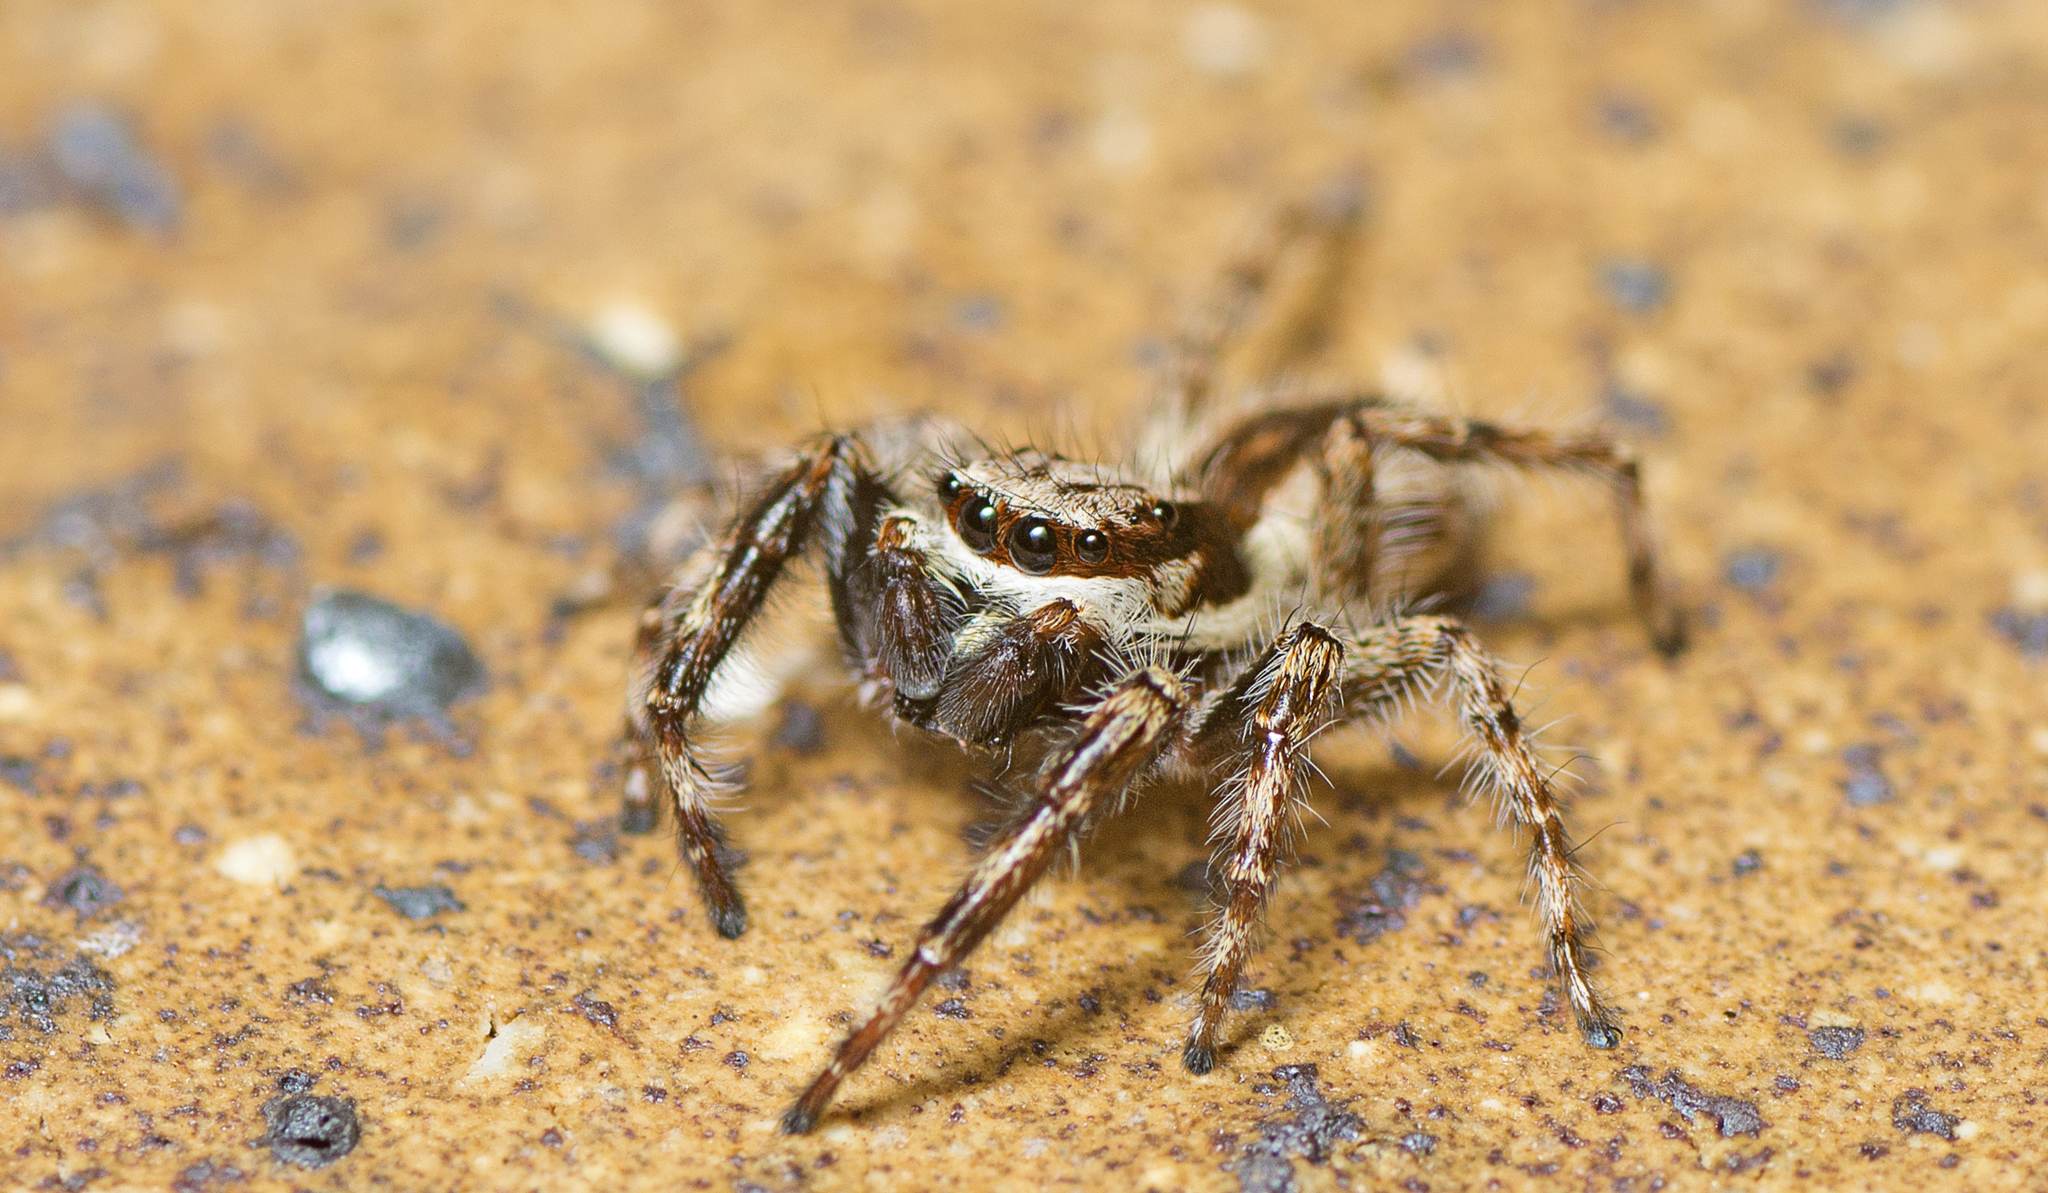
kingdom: Animalia
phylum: Arthropoda
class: Arachnida
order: Araneae
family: Salticidae
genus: Menemerus
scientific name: Menemerus bivittatus
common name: Gray wall jumper
